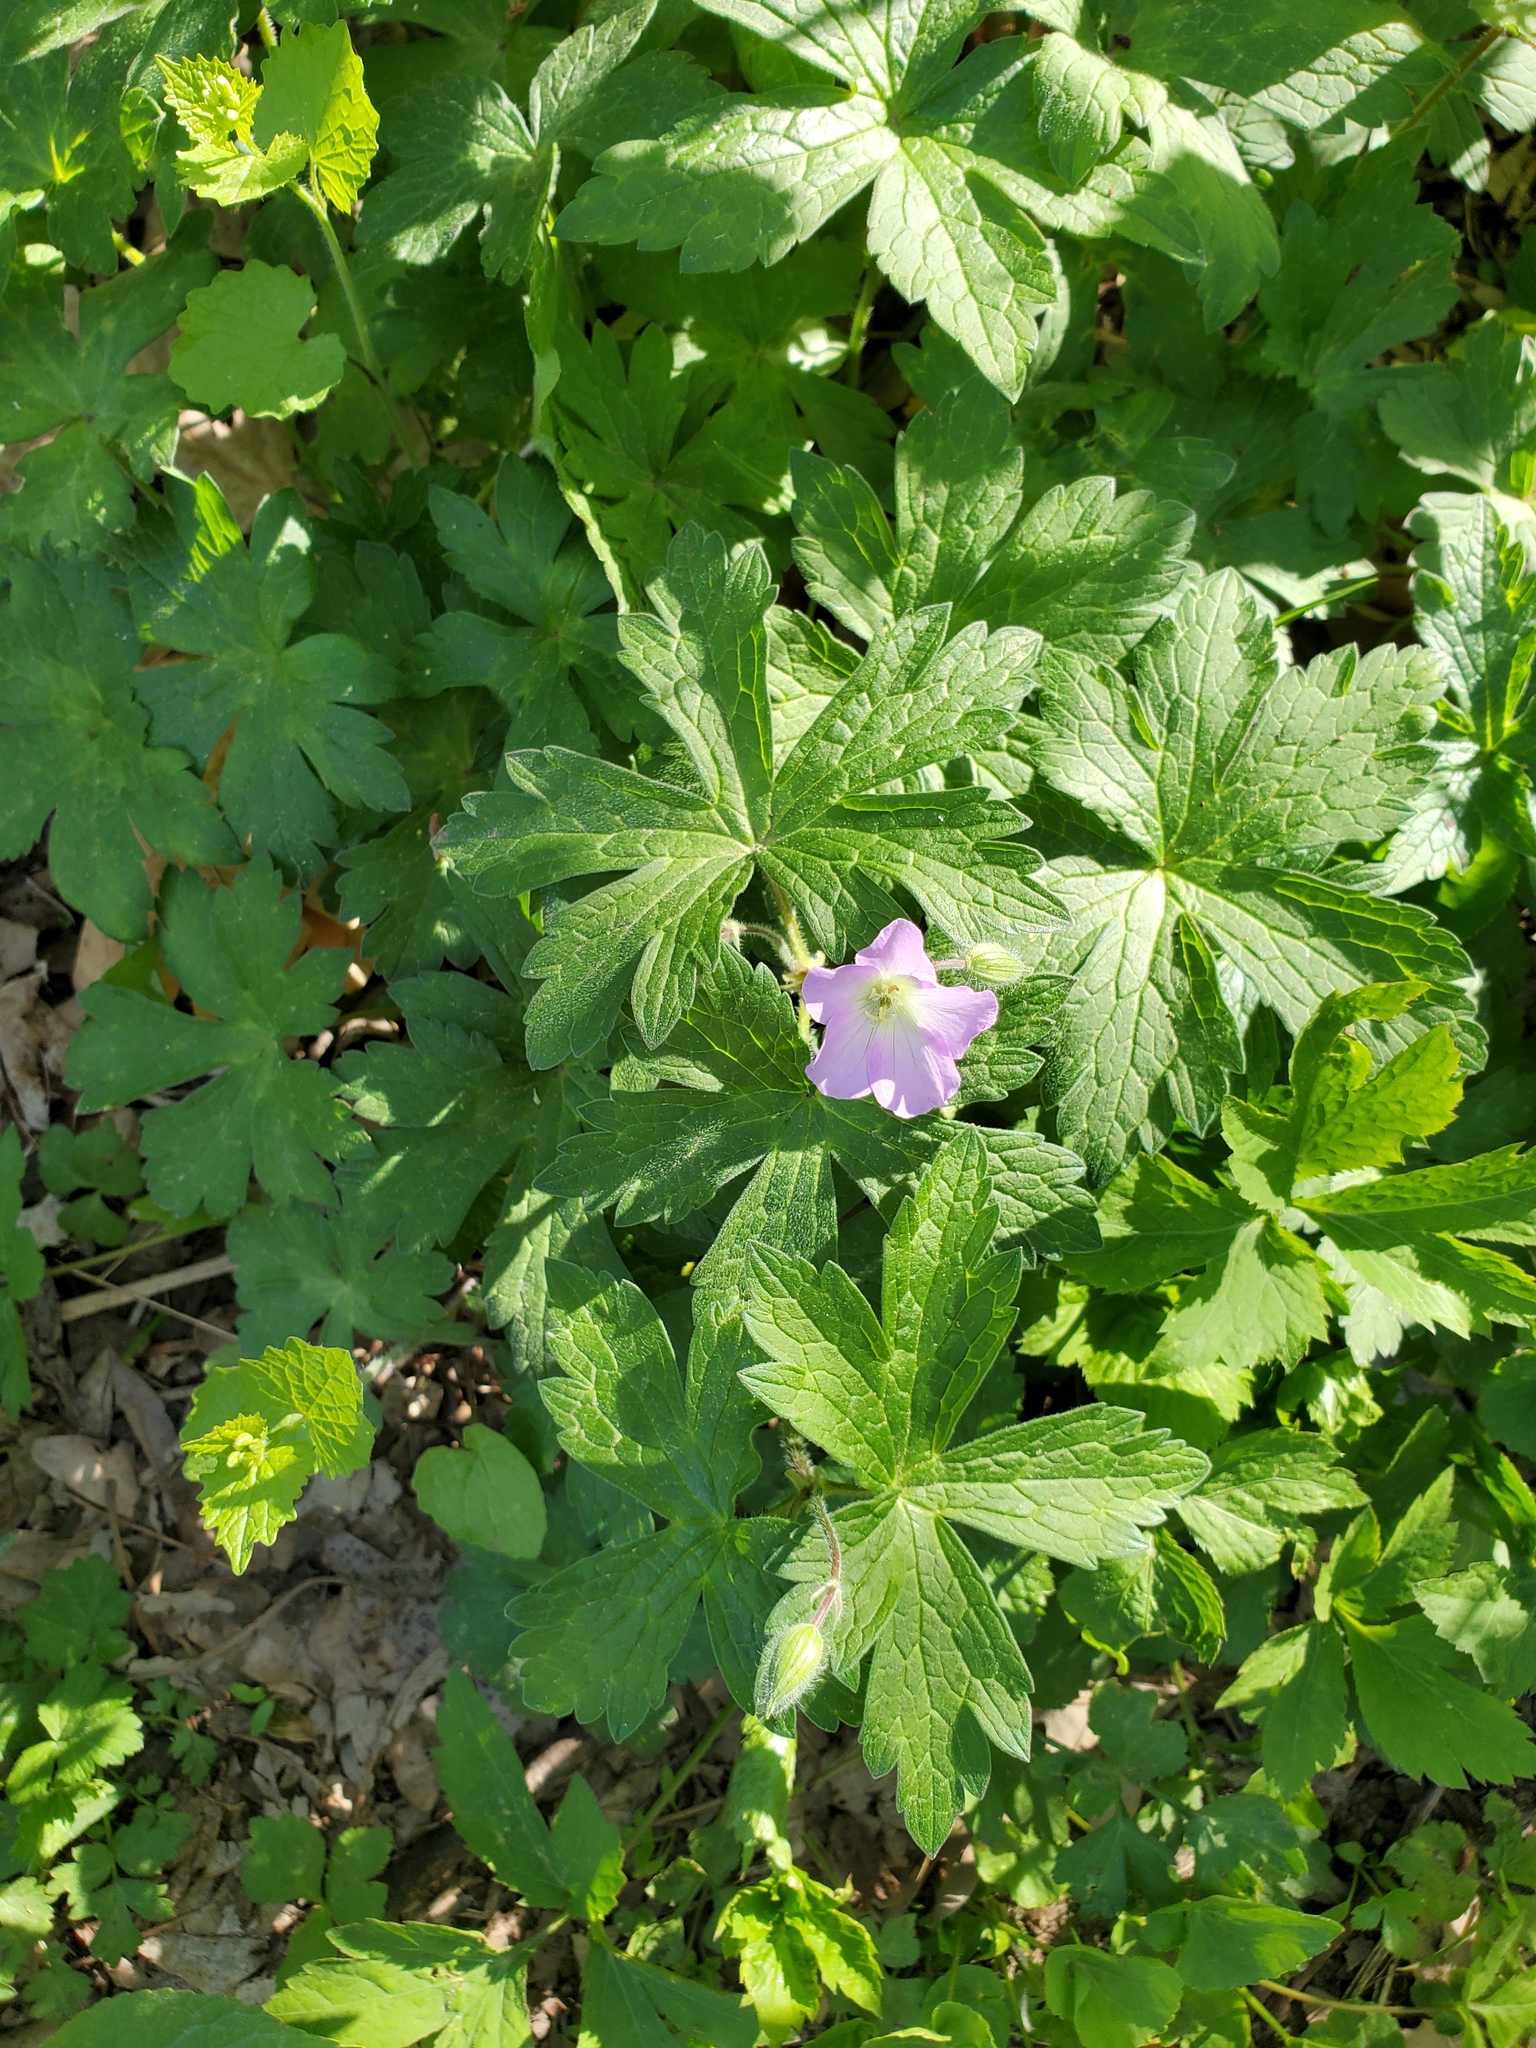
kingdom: Plantae
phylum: Tracheophyta
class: Magnoliopsida
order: Geraniales
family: Geraniaceae
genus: Geranium
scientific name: Geranium maculatum
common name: Spotted geranium
